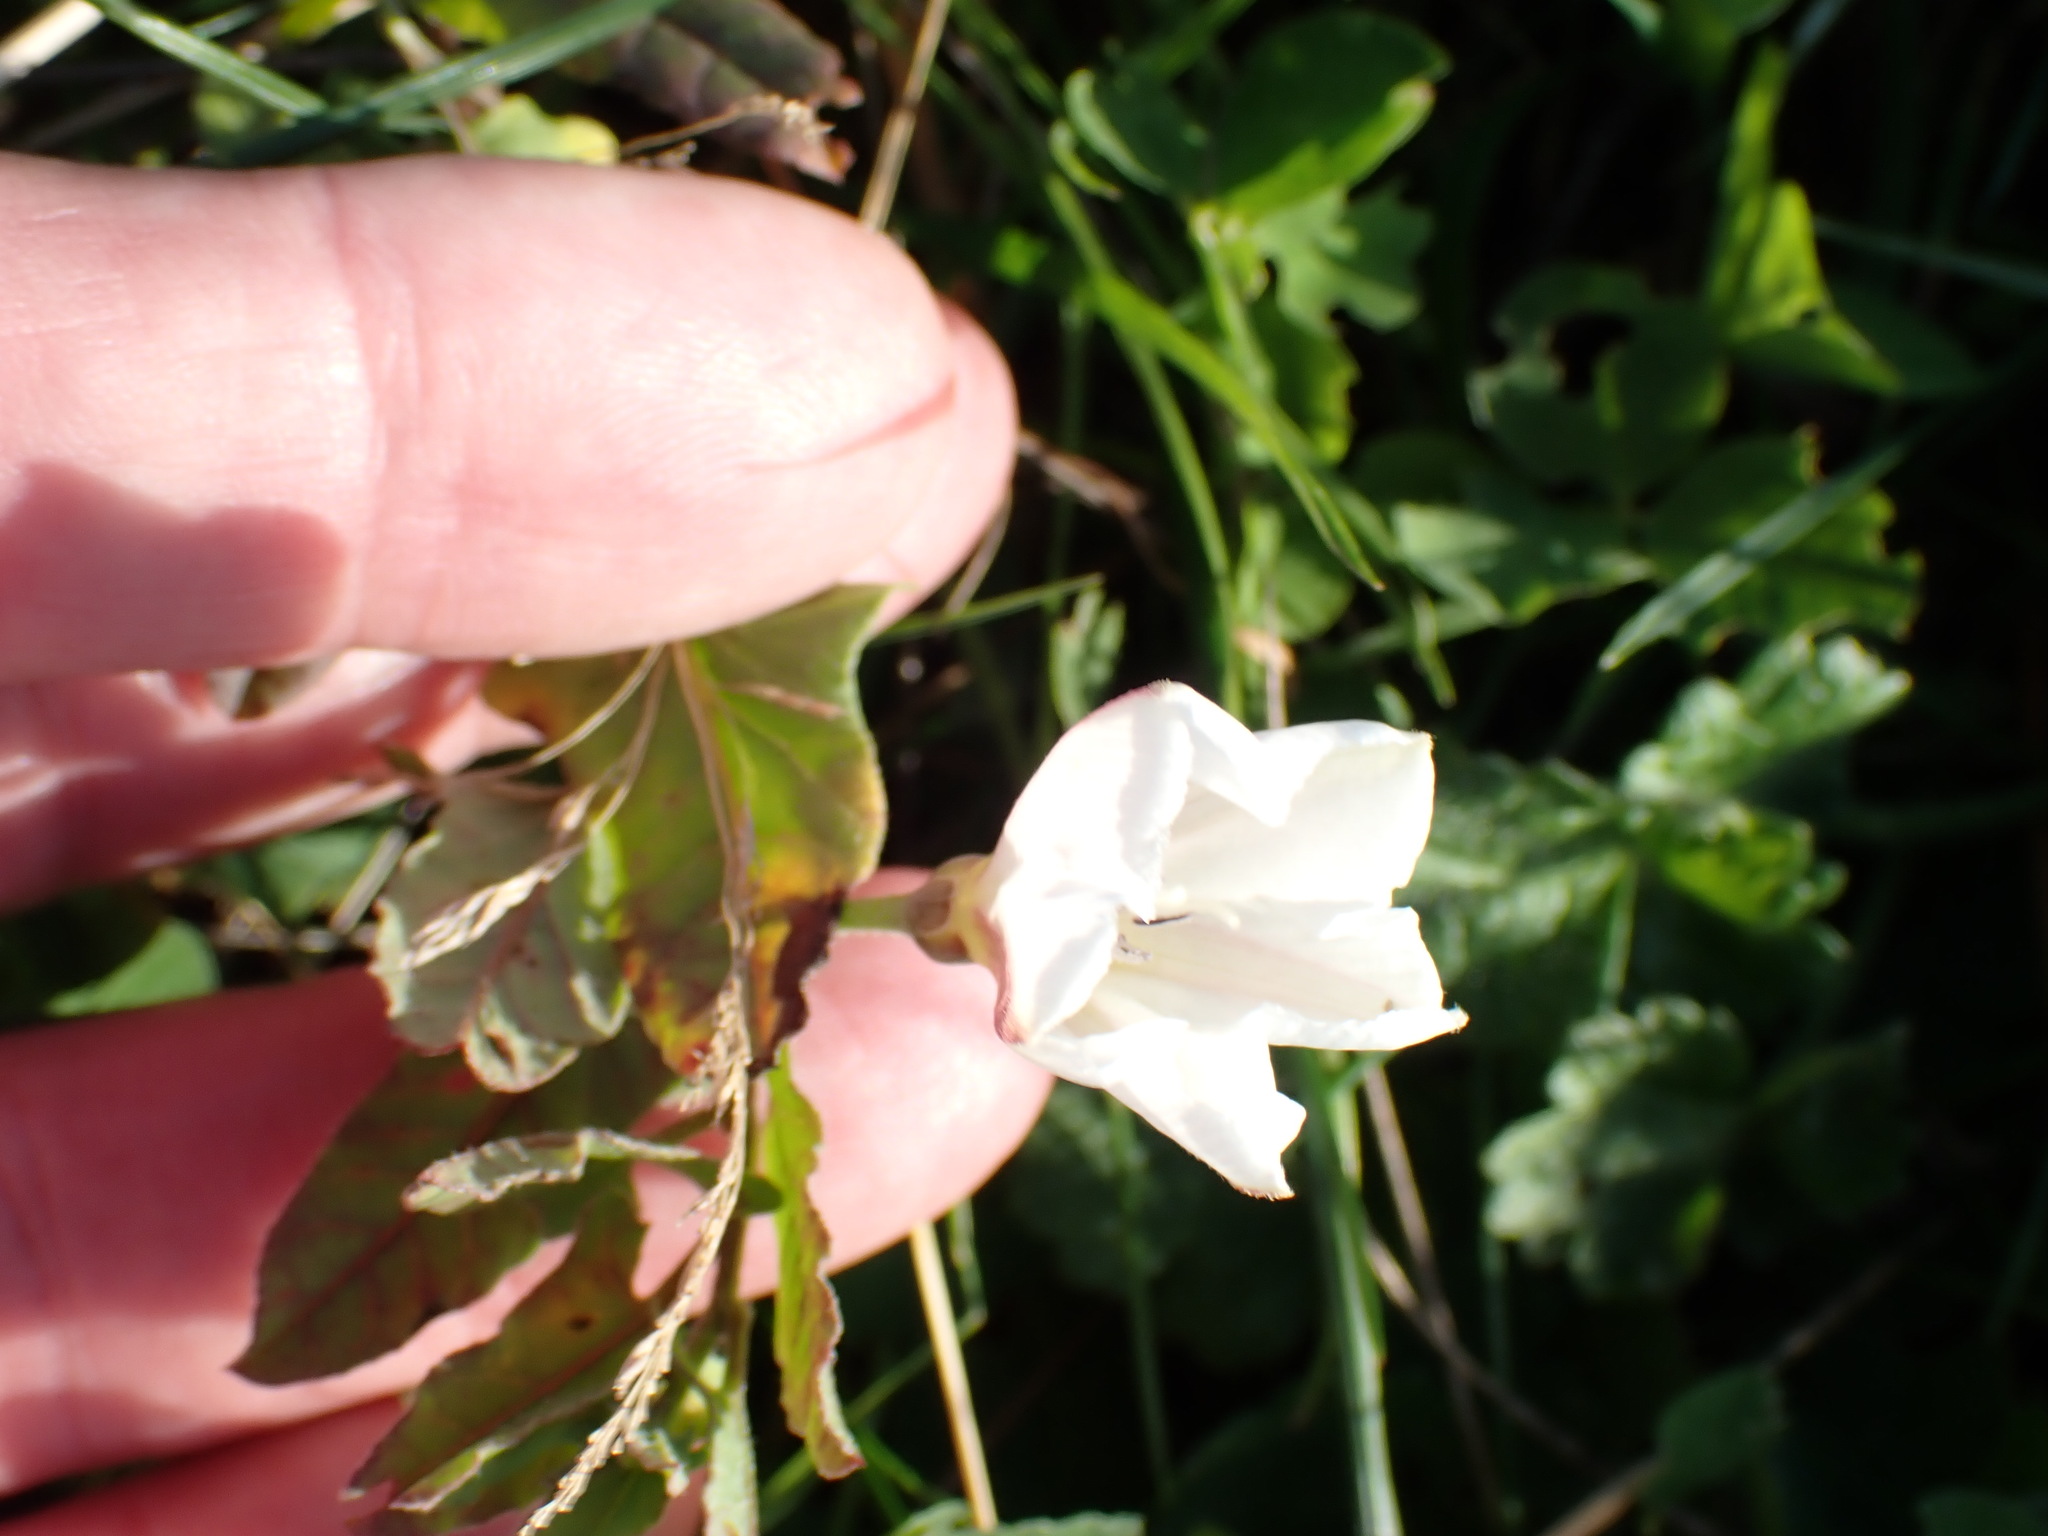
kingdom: Plantae
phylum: Tracheophyta
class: Magnoliopsida
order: Solanales
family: Convolvulaceae
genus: Convolvulus
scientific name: Convolvulus arvensis
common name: Field bindweed
